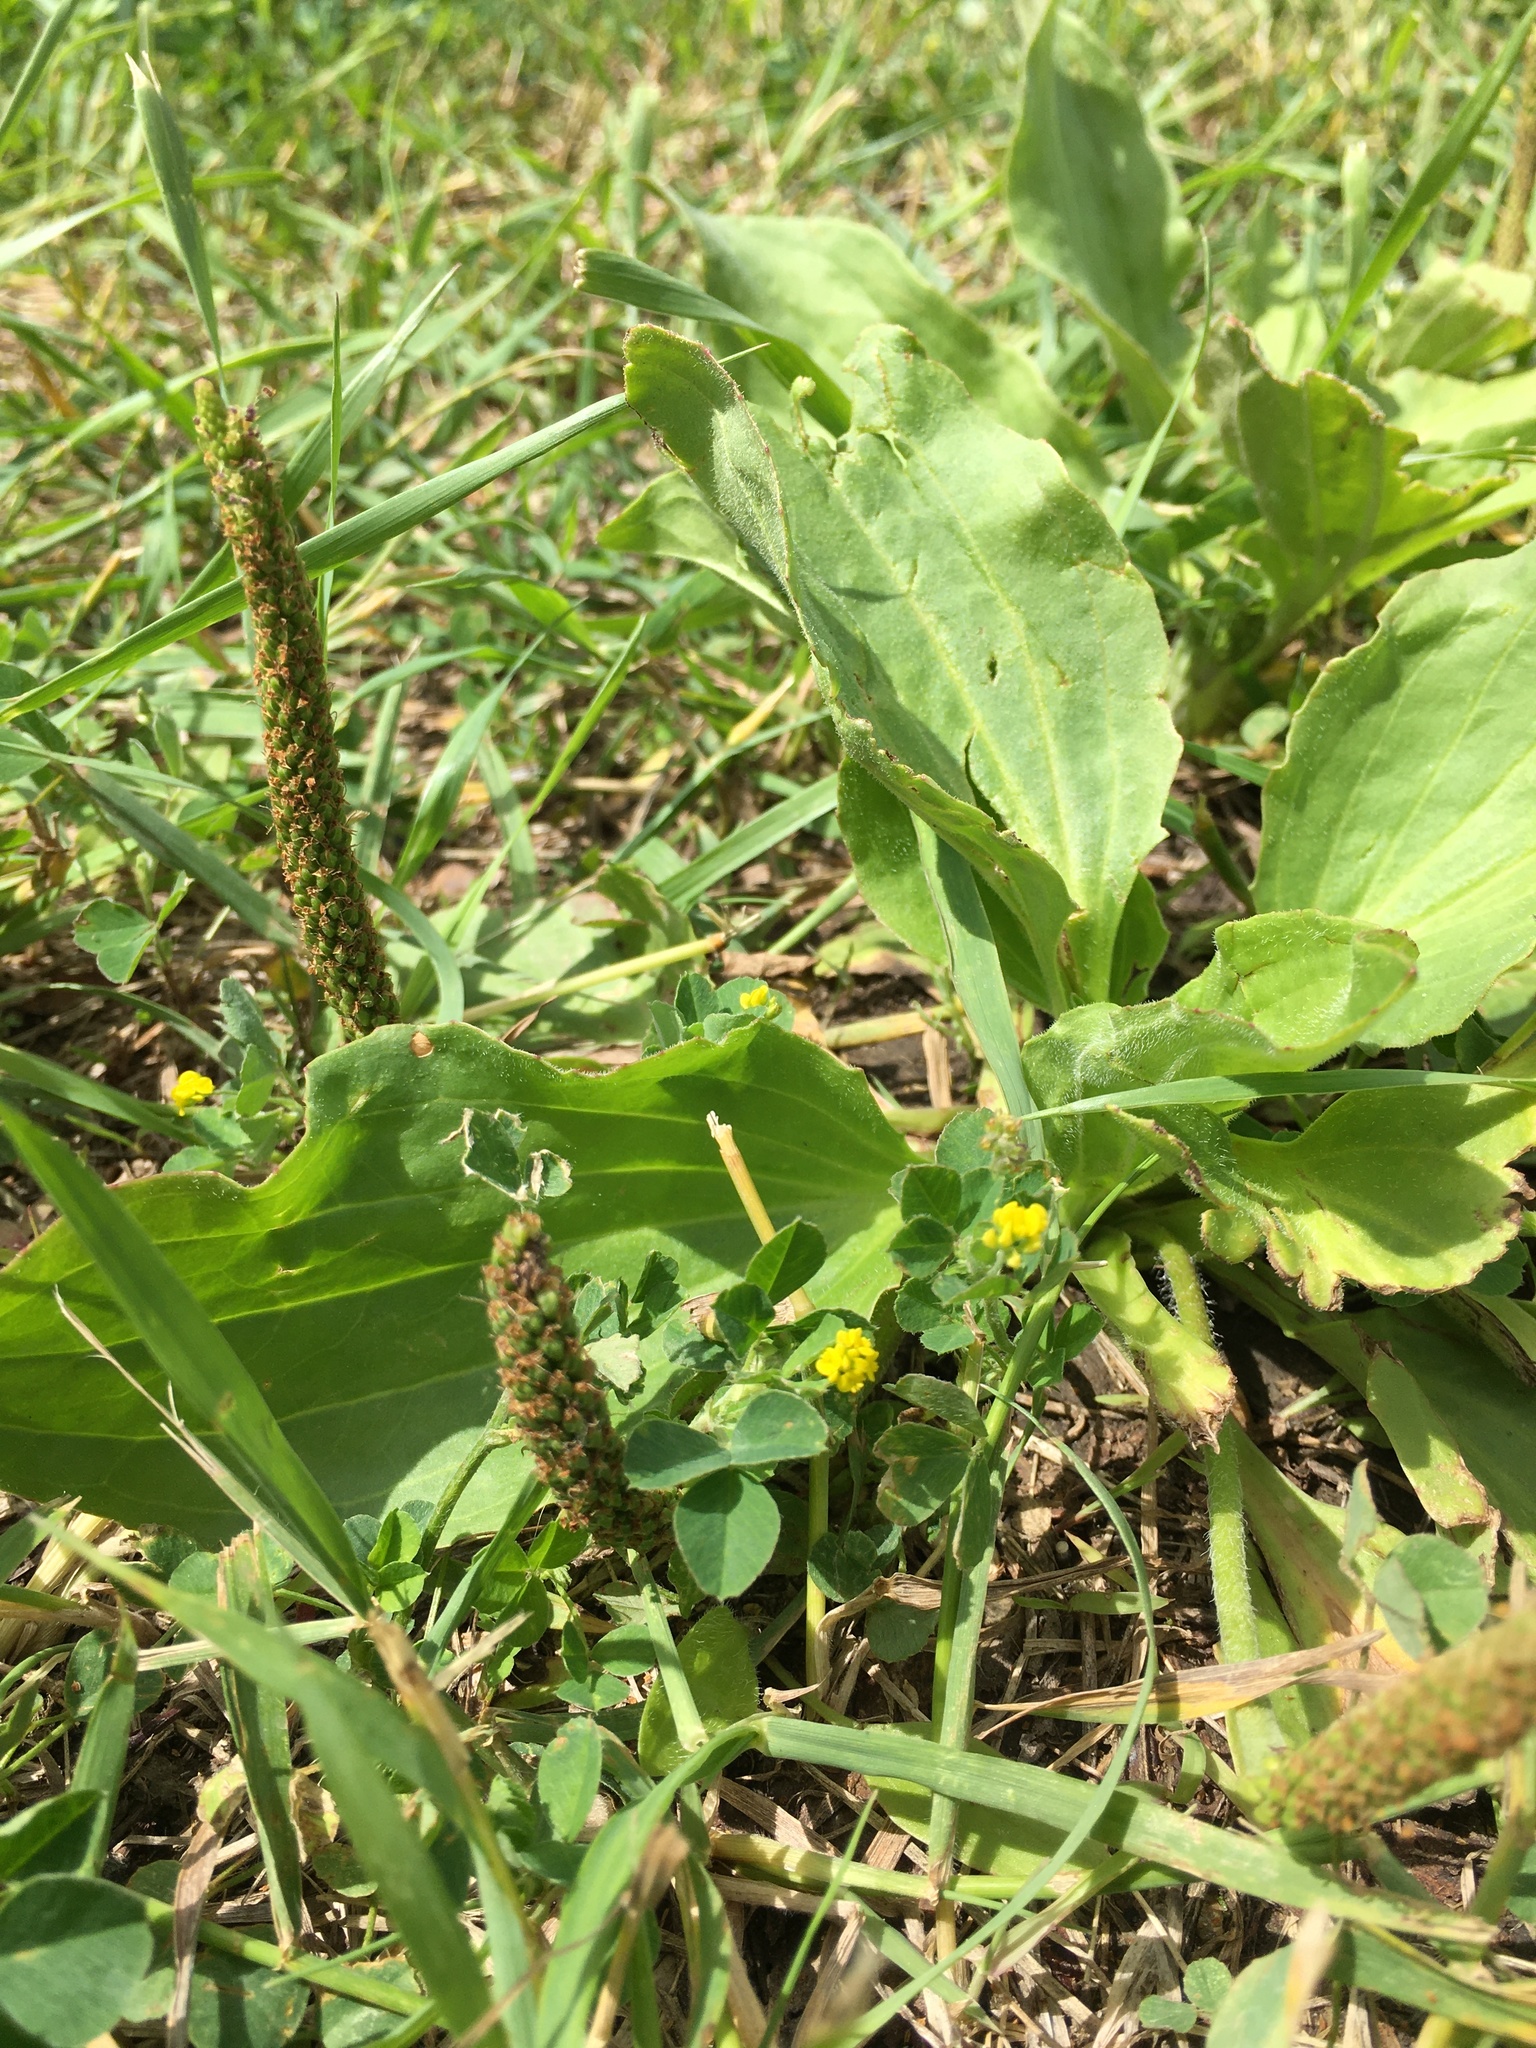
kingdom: Plantae
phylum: Tracheophyta
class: Magnoliopsida
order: Lamiales
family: Plantaginaceae
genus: Plantago
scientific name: Plantago major
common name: Common plantain
